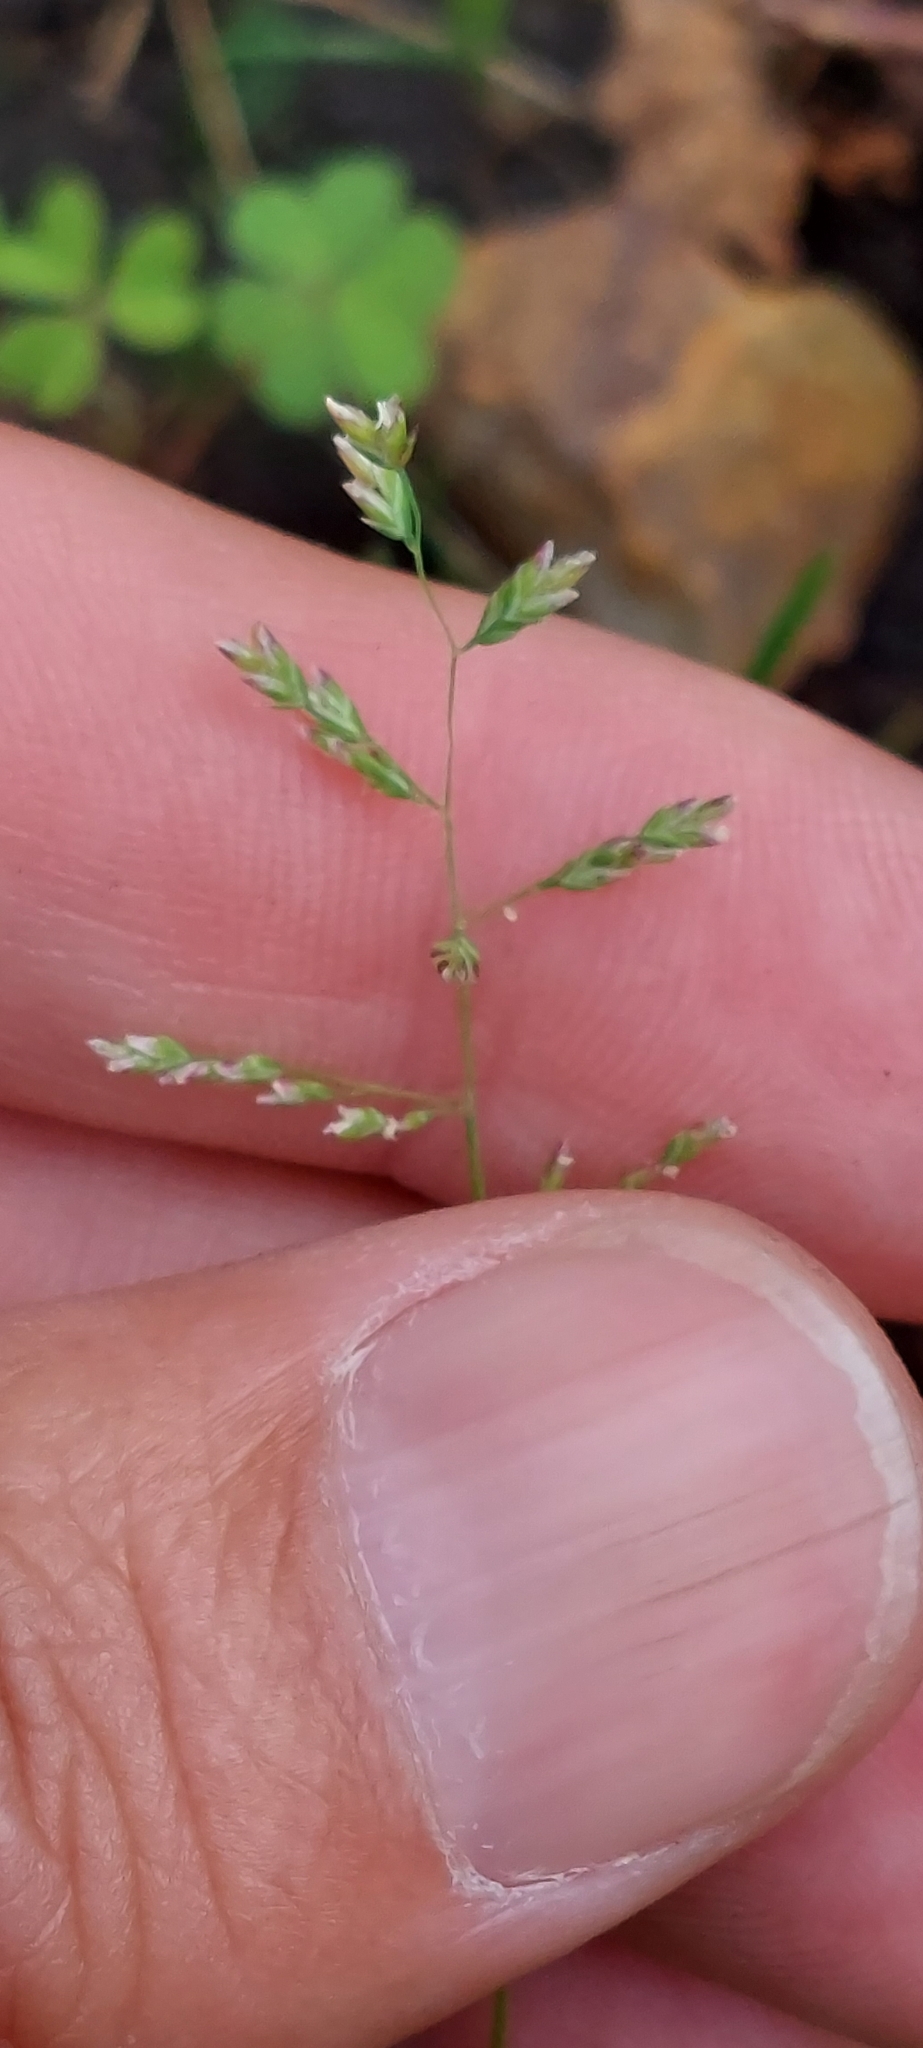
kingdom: Plantae
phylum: Tracheophyta
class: Liliopsida
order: Poales
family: Poaceae
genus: Poa
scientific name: Poa annua
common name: Annual bluegrass
